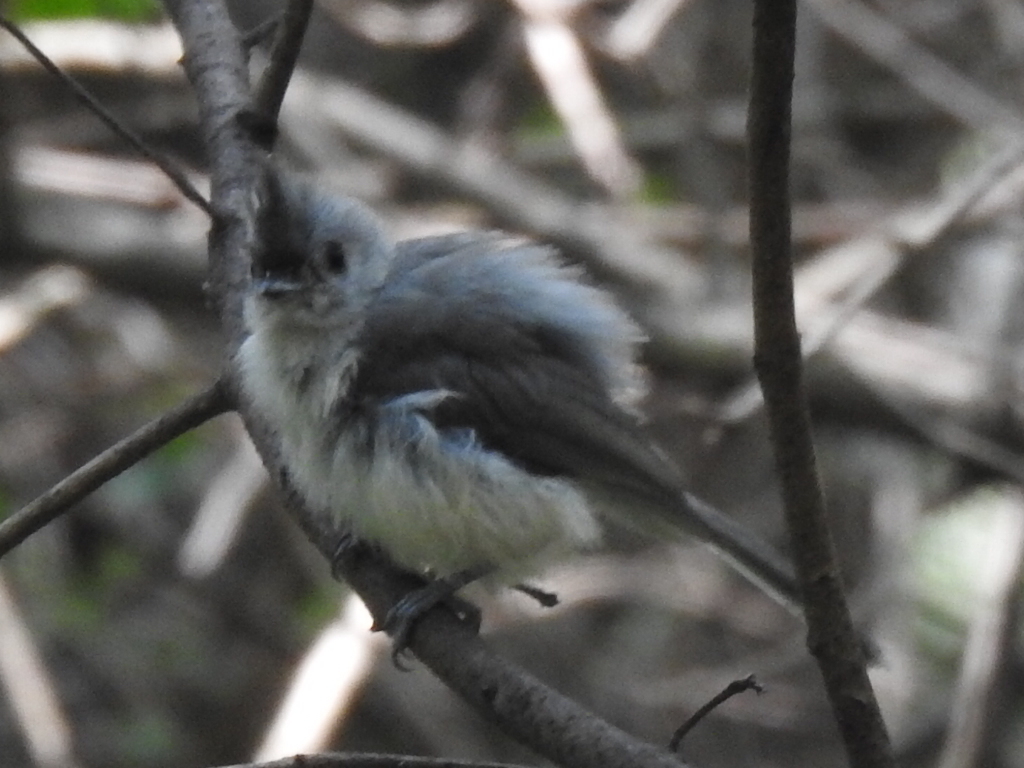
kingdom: Animalia
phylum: Chordata
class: Aves
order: Passeriformes
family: Paridae
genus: Baeolophus
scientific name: Baeolophus bicolor
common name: Tufted titmouse
